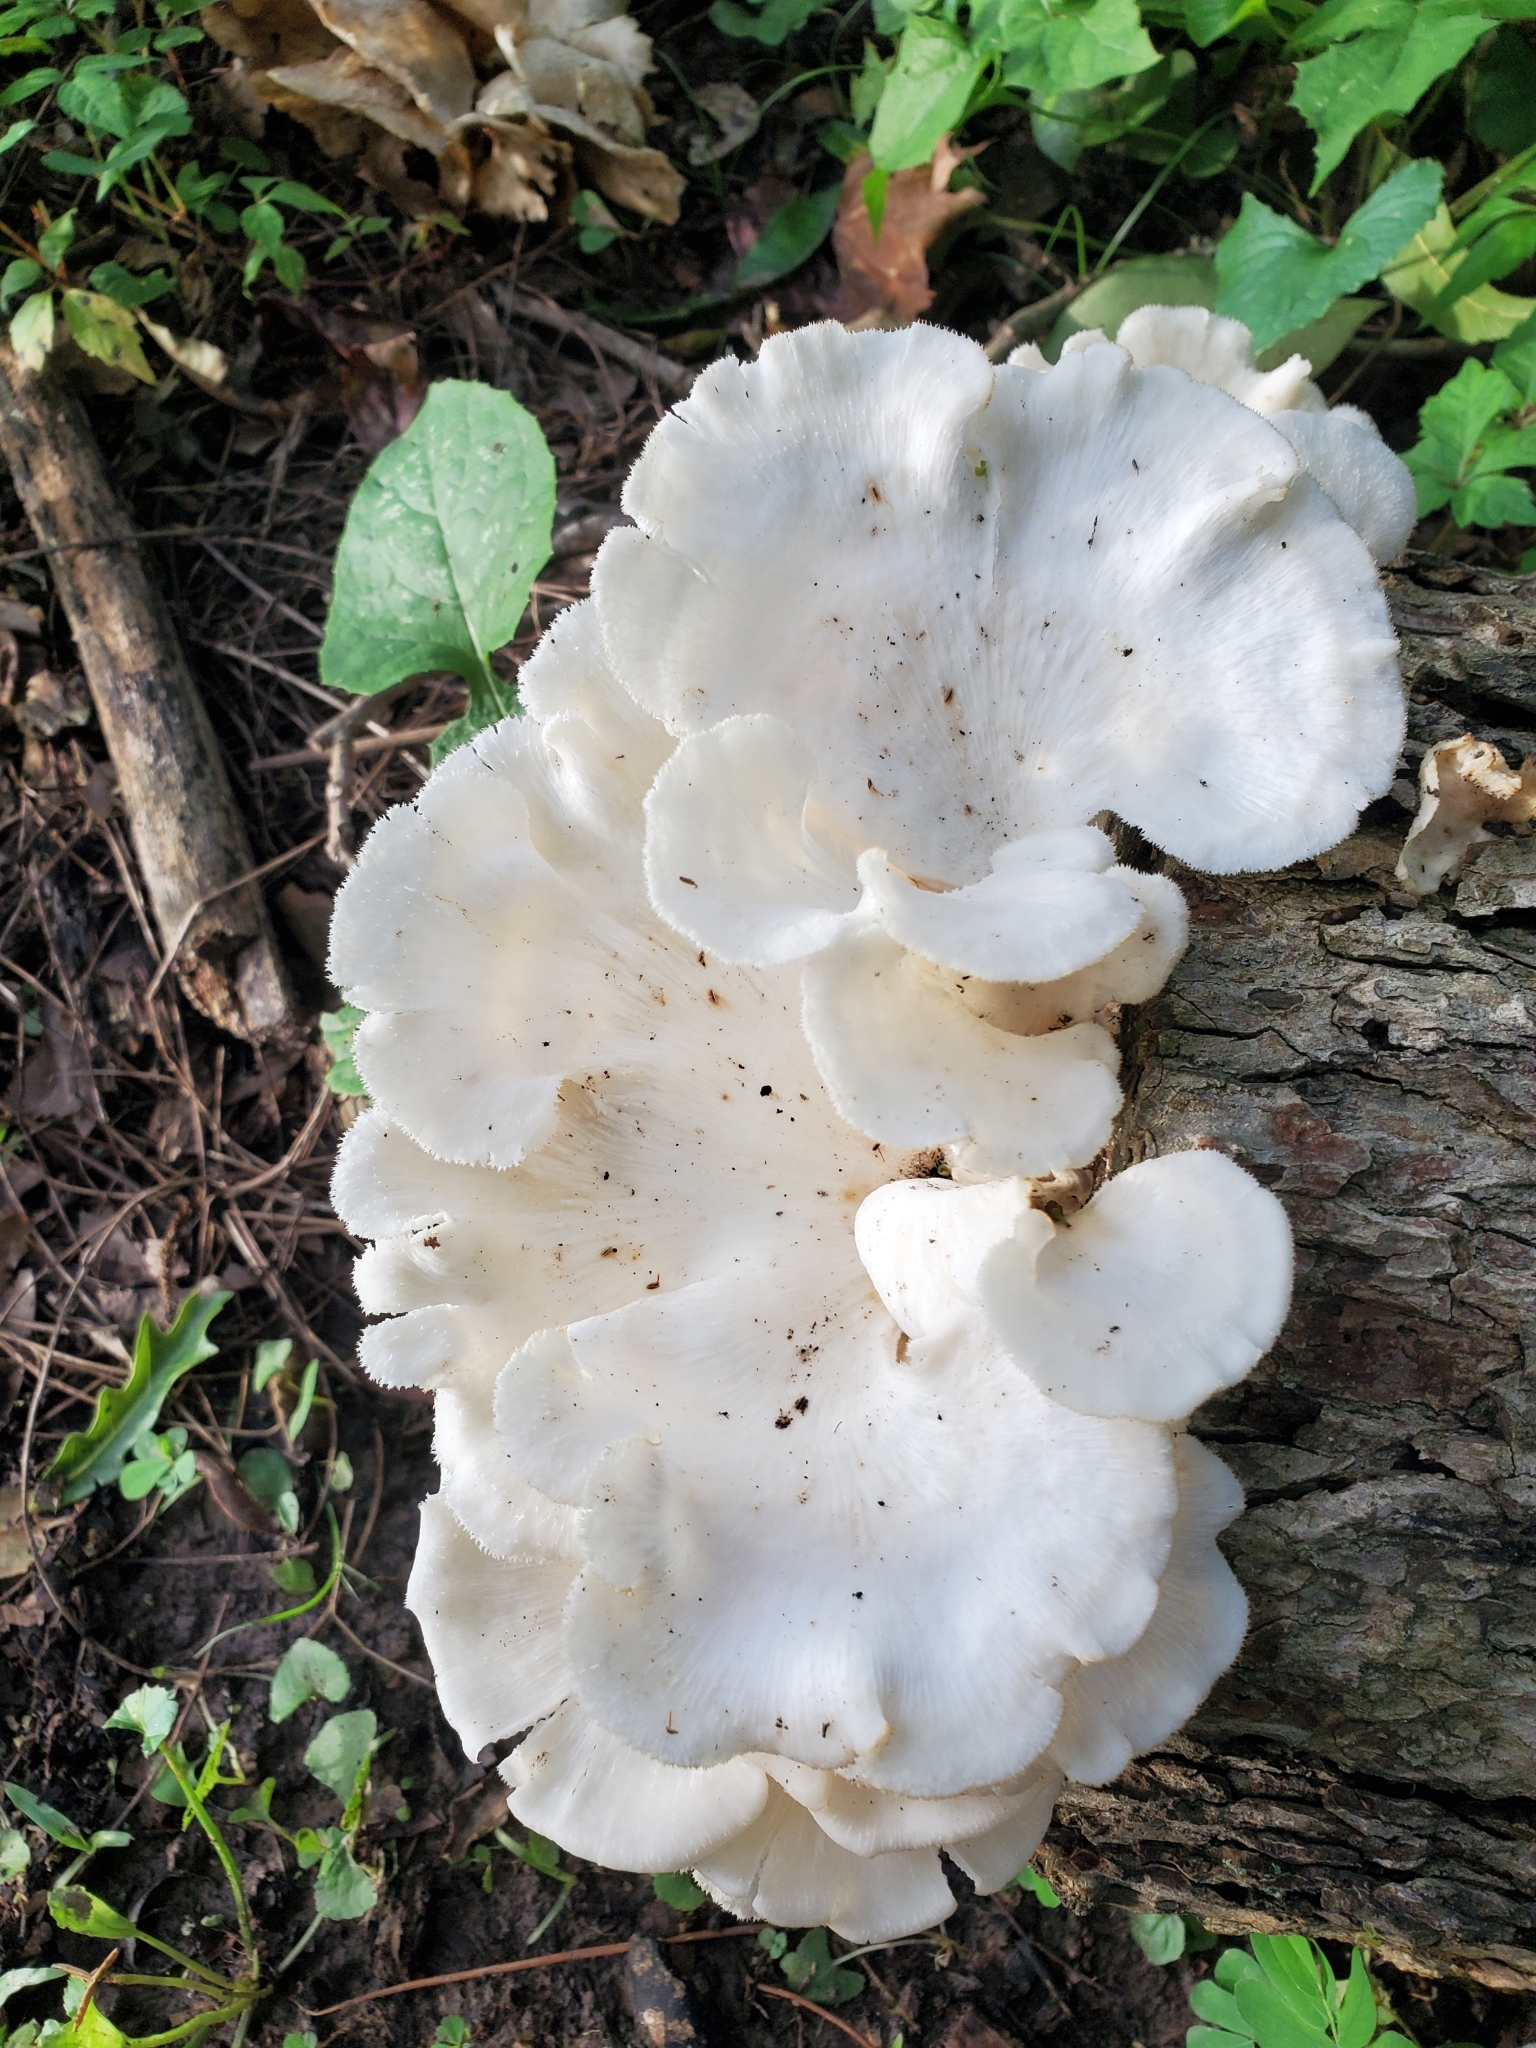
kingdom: Fungi
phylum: Basidiomycota
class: Agaricomycetes
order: Polyporales
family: Polyporaceae
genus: Favolus
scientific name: Favolus tenuiculus
